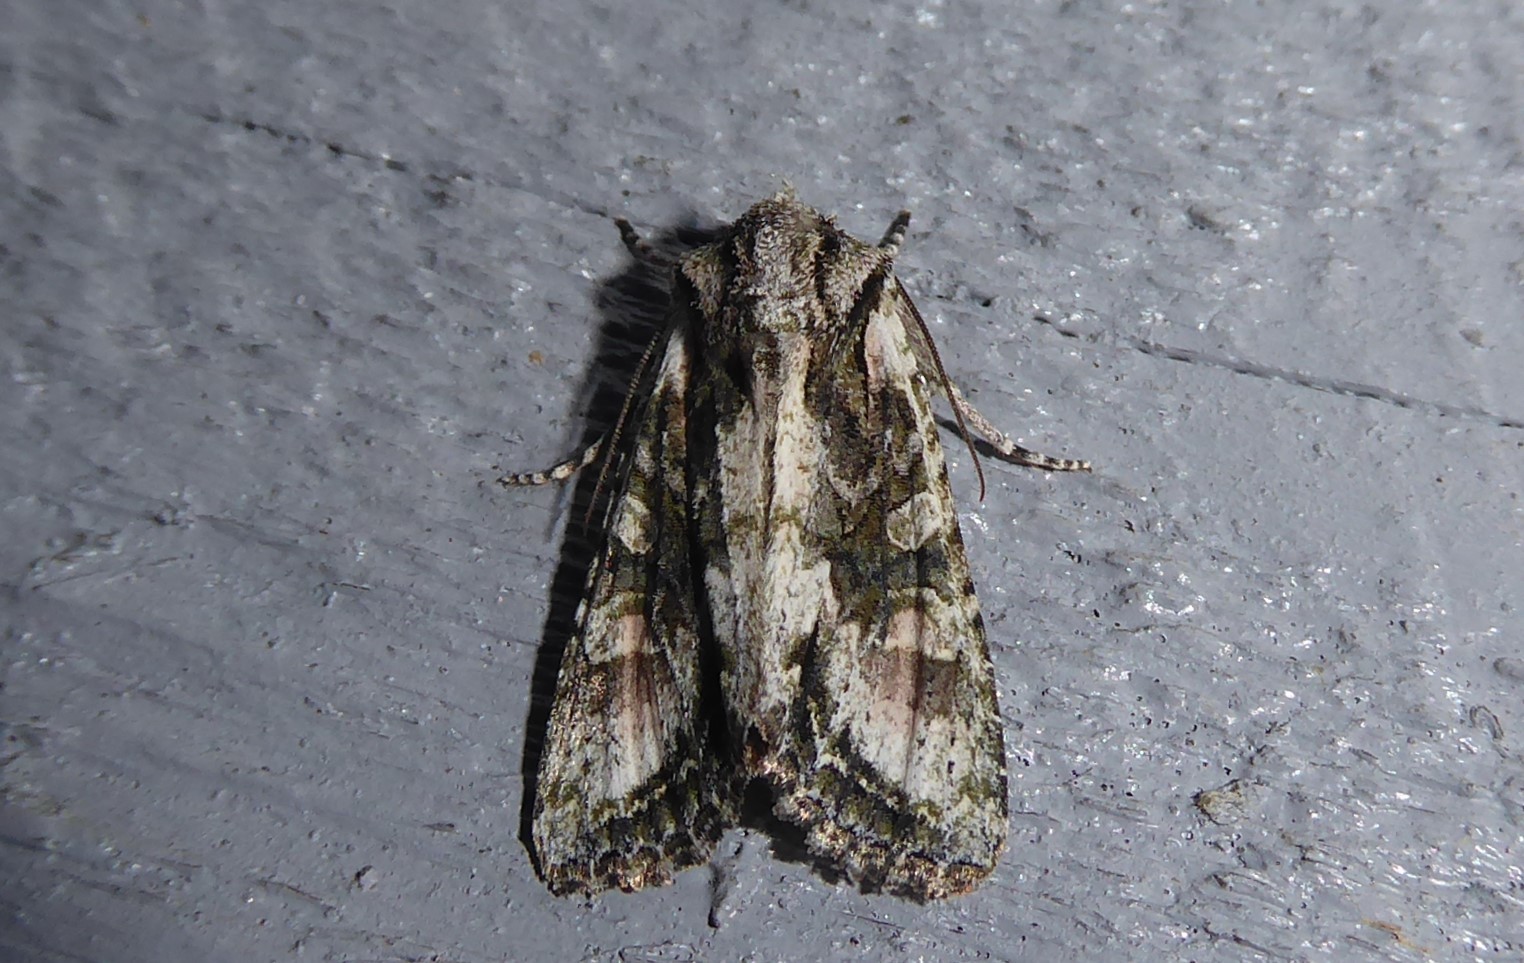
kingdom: Animalia
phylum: Arthropoda
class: Insecta
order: Lepidoptera
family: Noctuidae
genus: Ichneutica
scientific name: Ichneutica mutans
